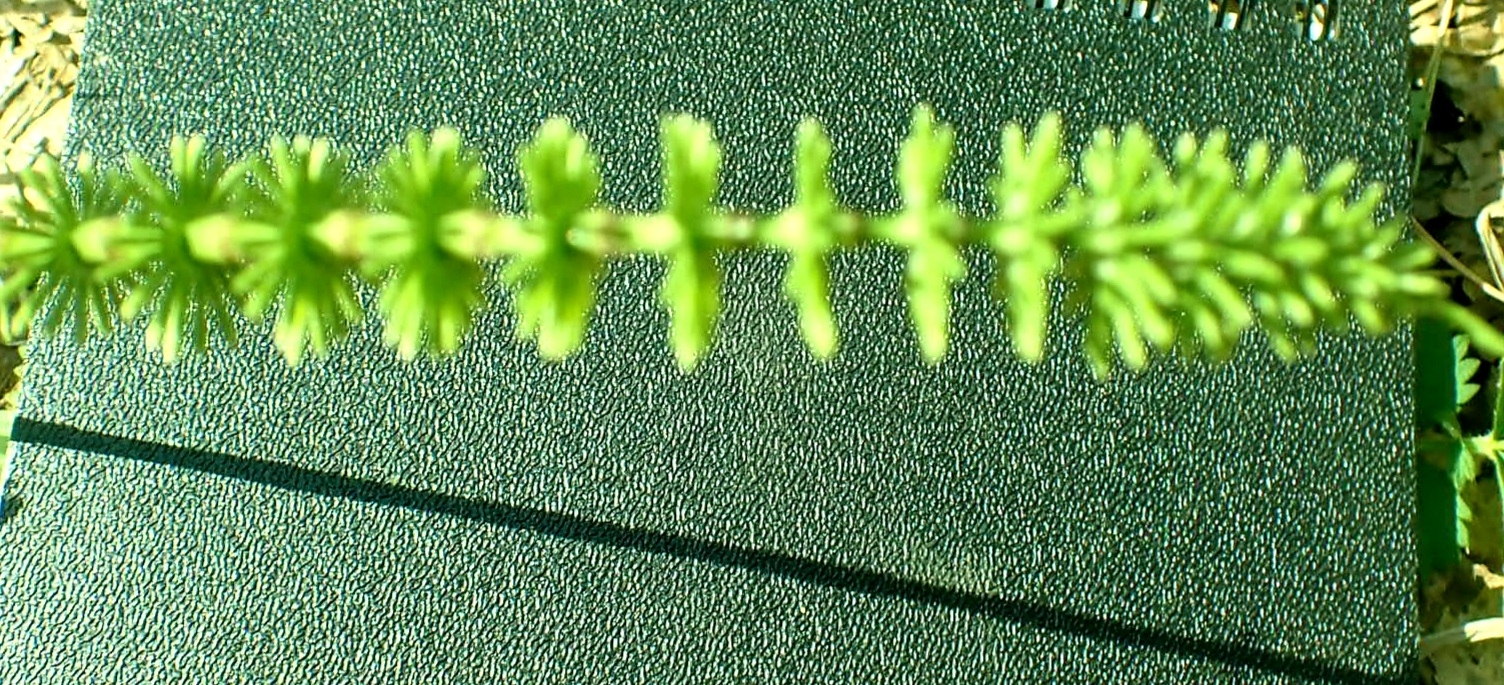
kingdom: Plantae
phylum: Tracheophyta
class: Polypodiopsida
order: Equisetales
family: Equisetaceae
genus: Equisetum
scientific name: Equisetum pratense
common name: Meadow horsetail
